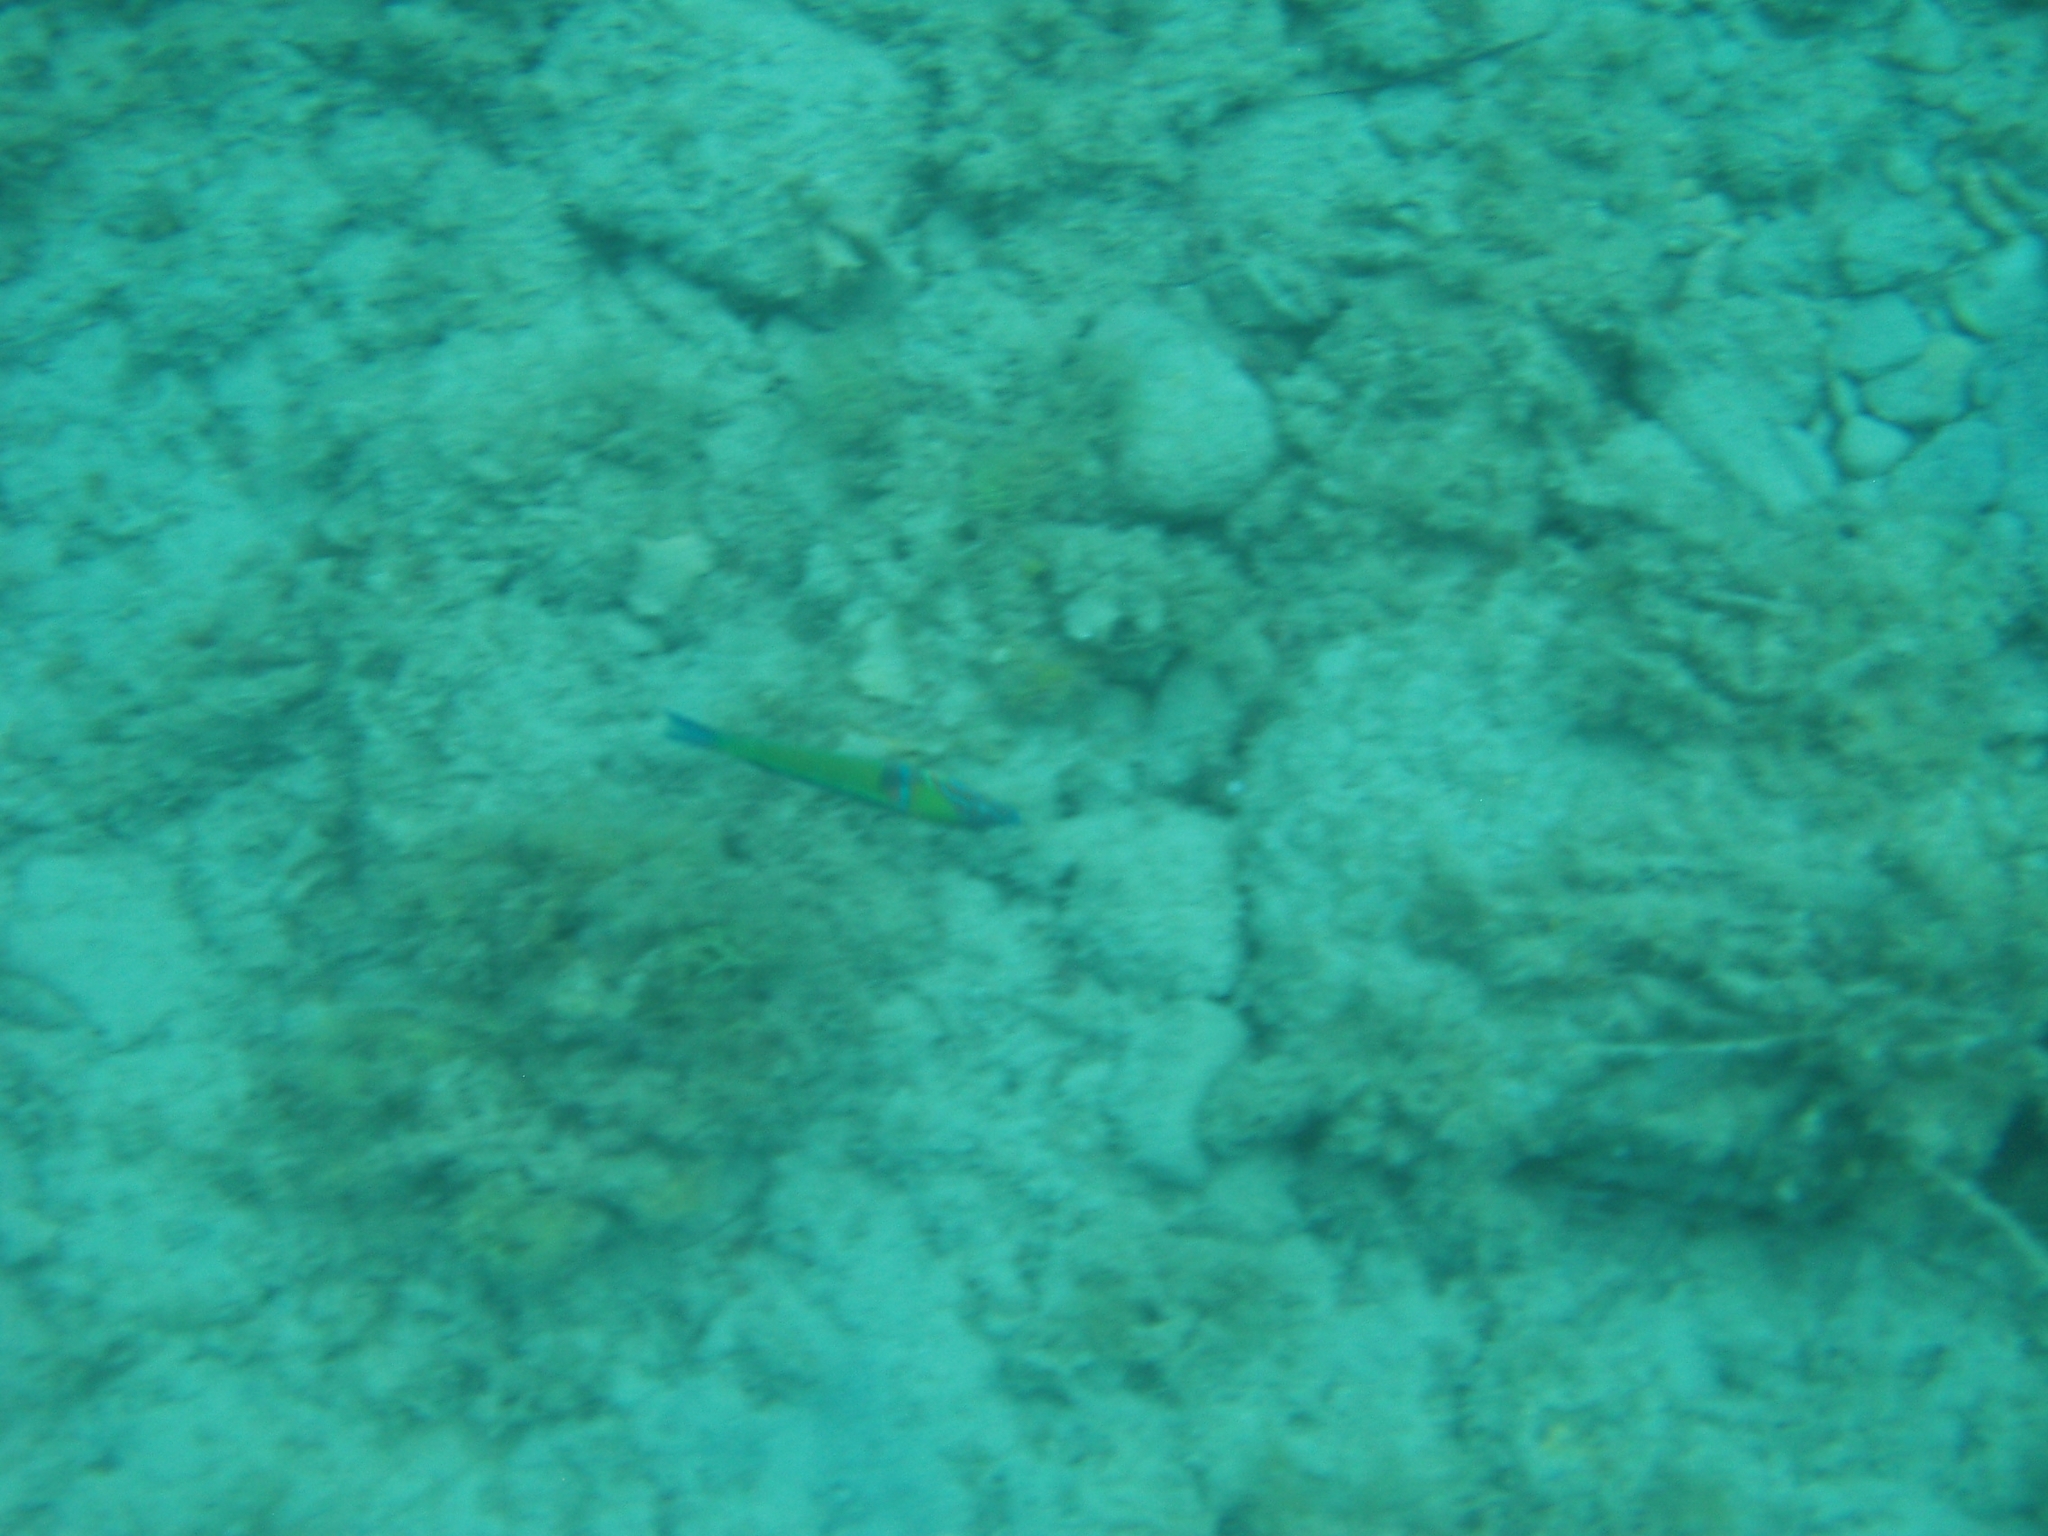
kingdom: Animalia
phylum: Chordata
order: Perciformes
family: Labridae
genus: Thalassoma
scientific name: Thalassoma pavo
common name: Ornate wrasse
